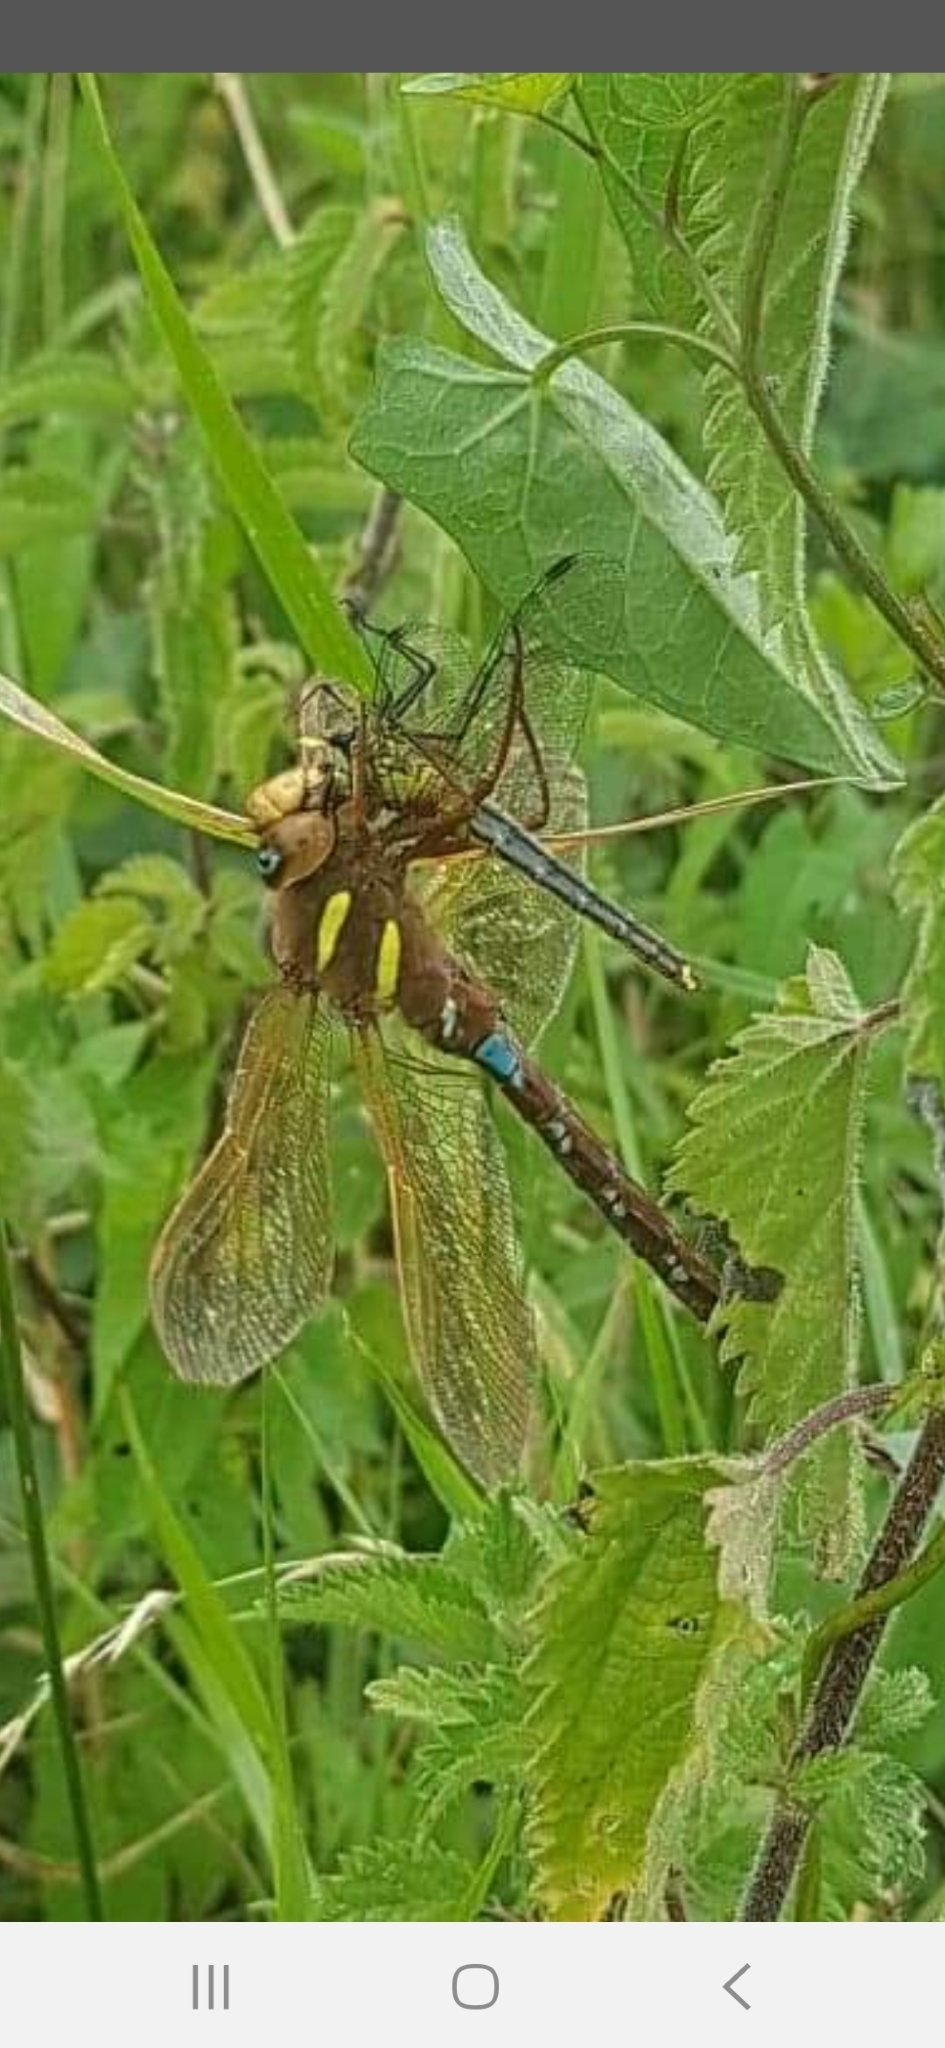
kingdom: Animalia
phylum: Arthropoda
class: Insecta
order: Odonata
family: Aeshnidae
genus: Aeshna
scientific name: Aeshna grandis
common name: Brown hawker
